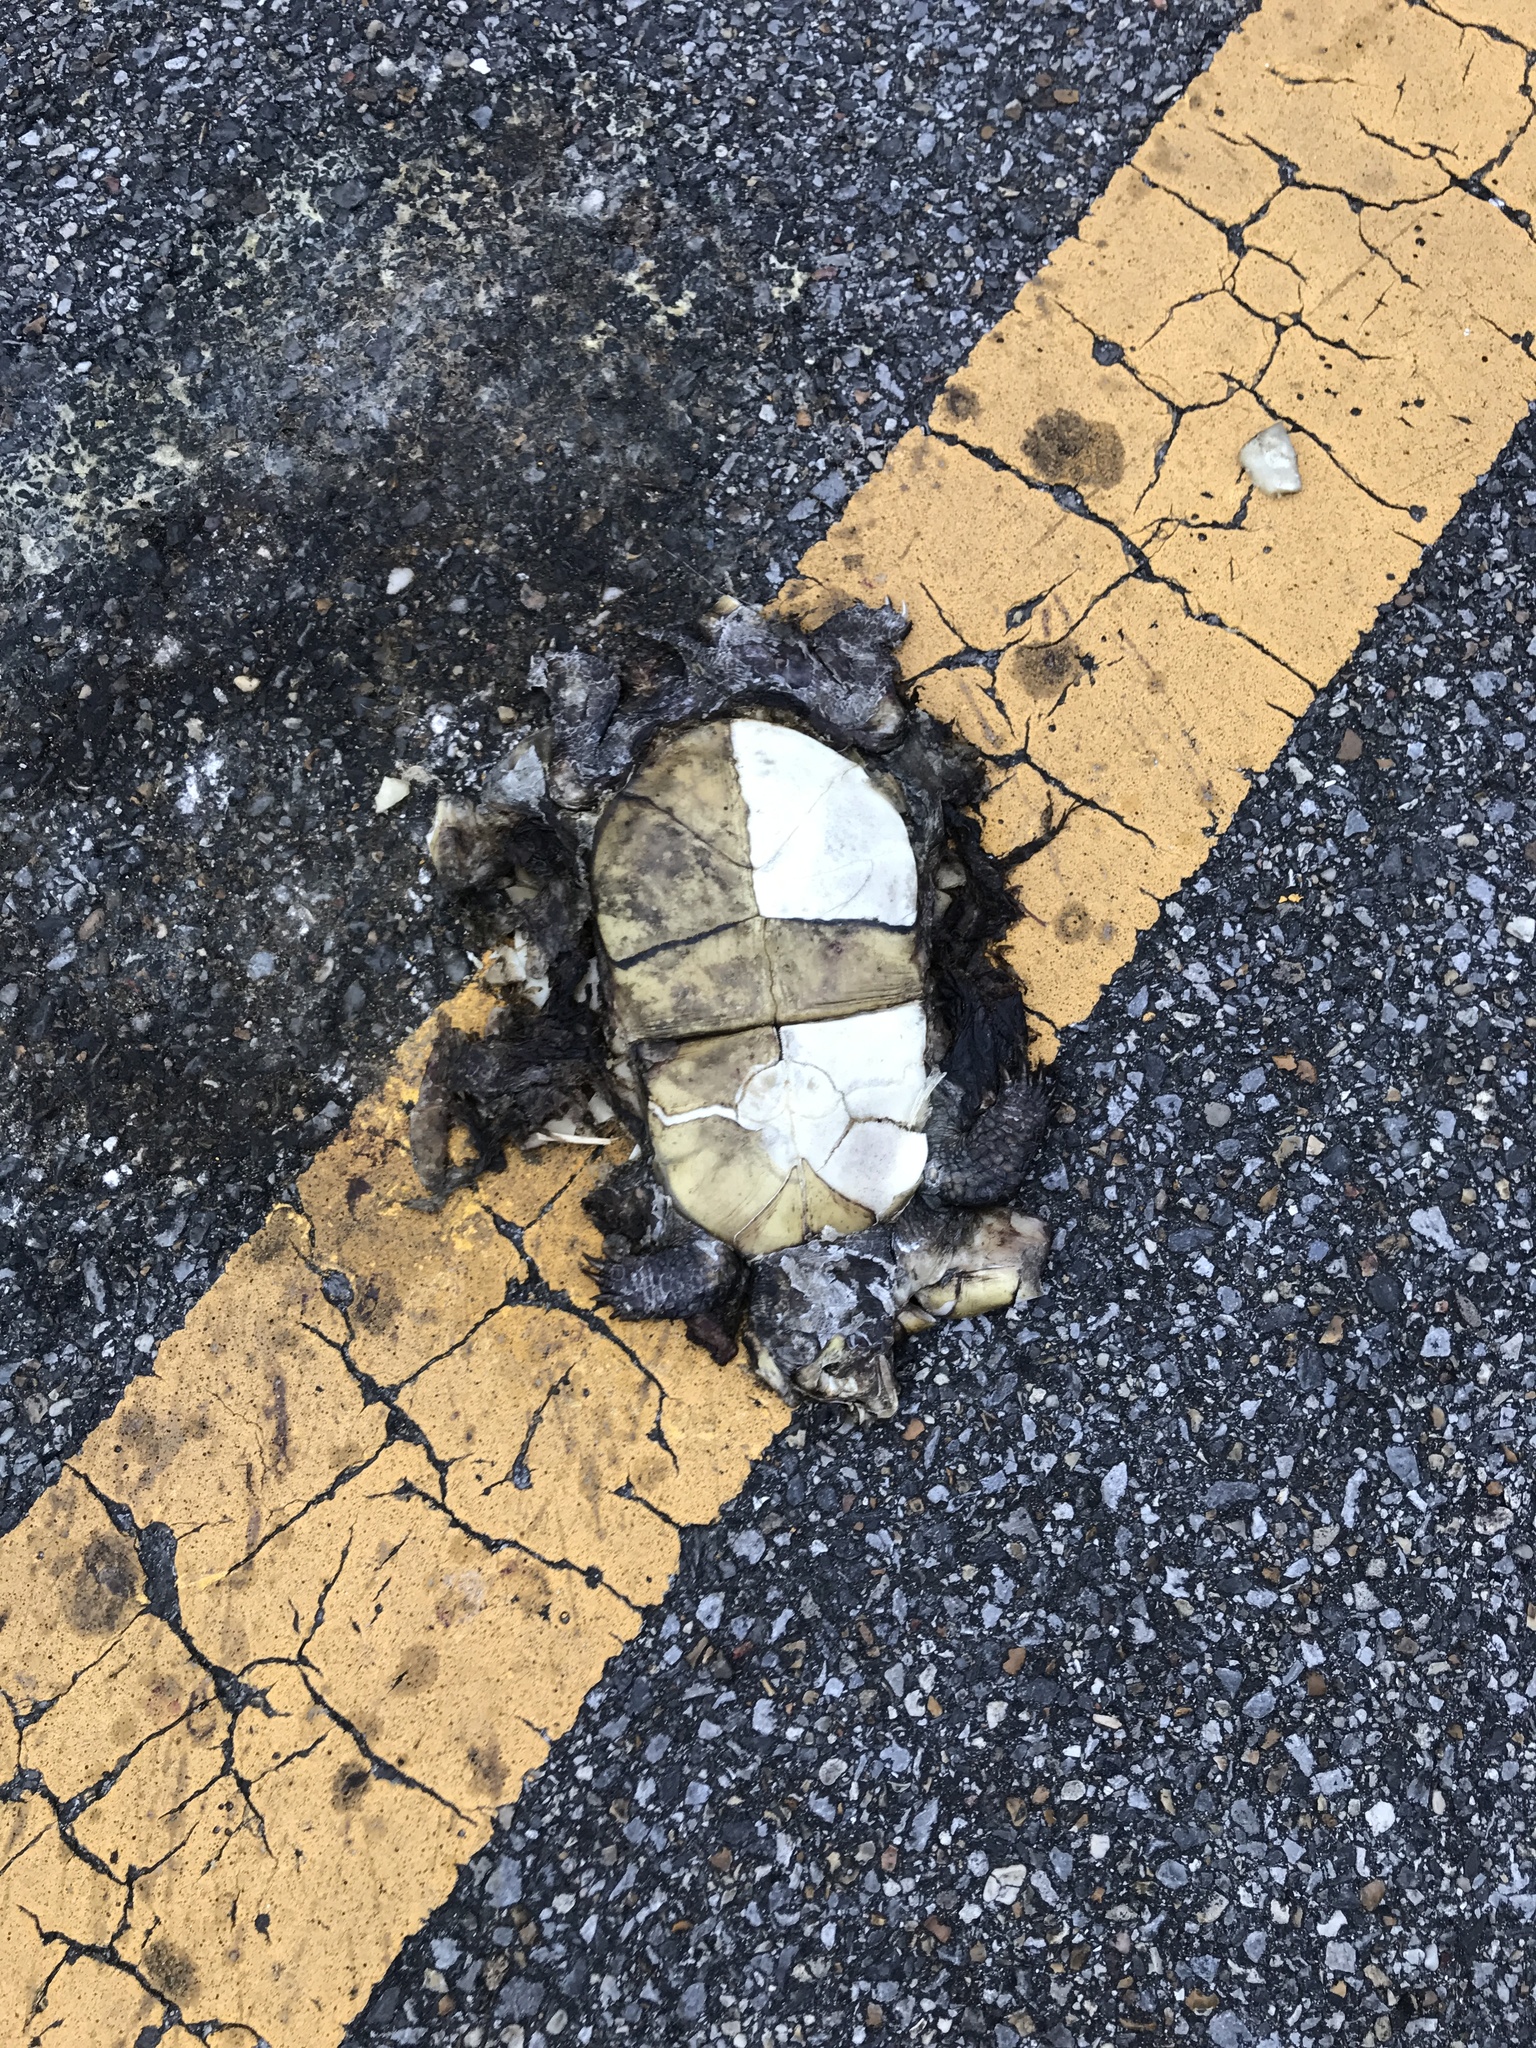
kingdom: Animalia
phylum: Chordata
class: Testudines
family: Emydidae
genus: Terrapene
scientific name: Terrapene carolina
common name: Common box turtle
